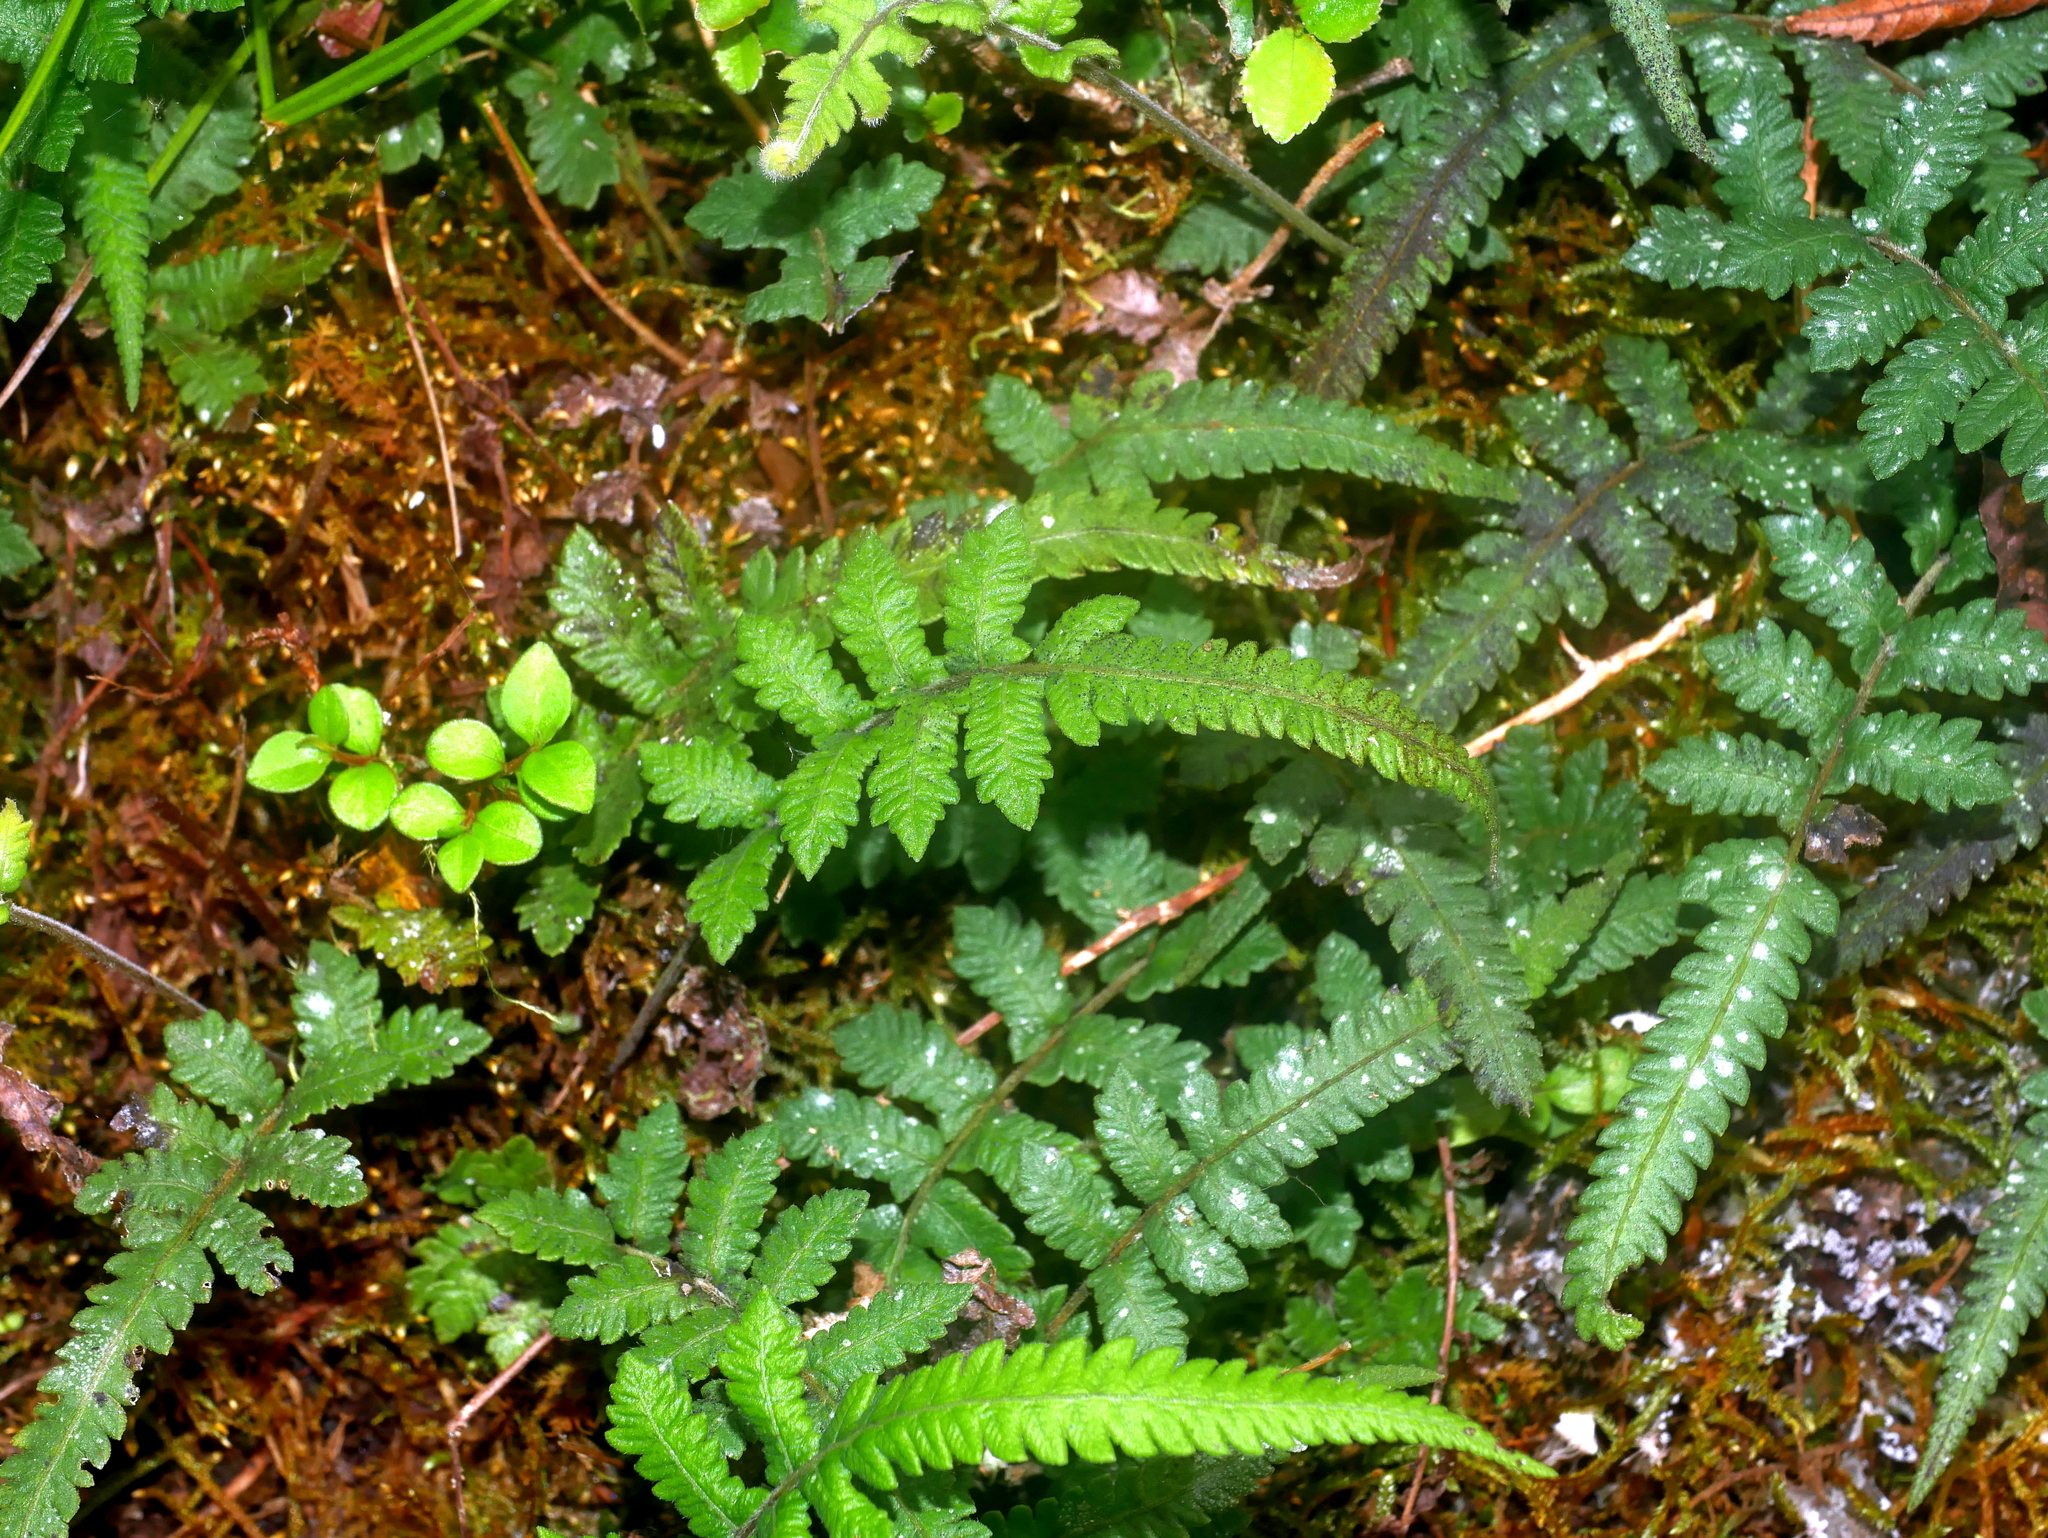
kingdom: Plantae
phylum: Tracheophyta
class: Polypodiopsida
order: Polypodiales
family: Thelypteridaceae
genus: Christella
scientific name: Christella acuminata
